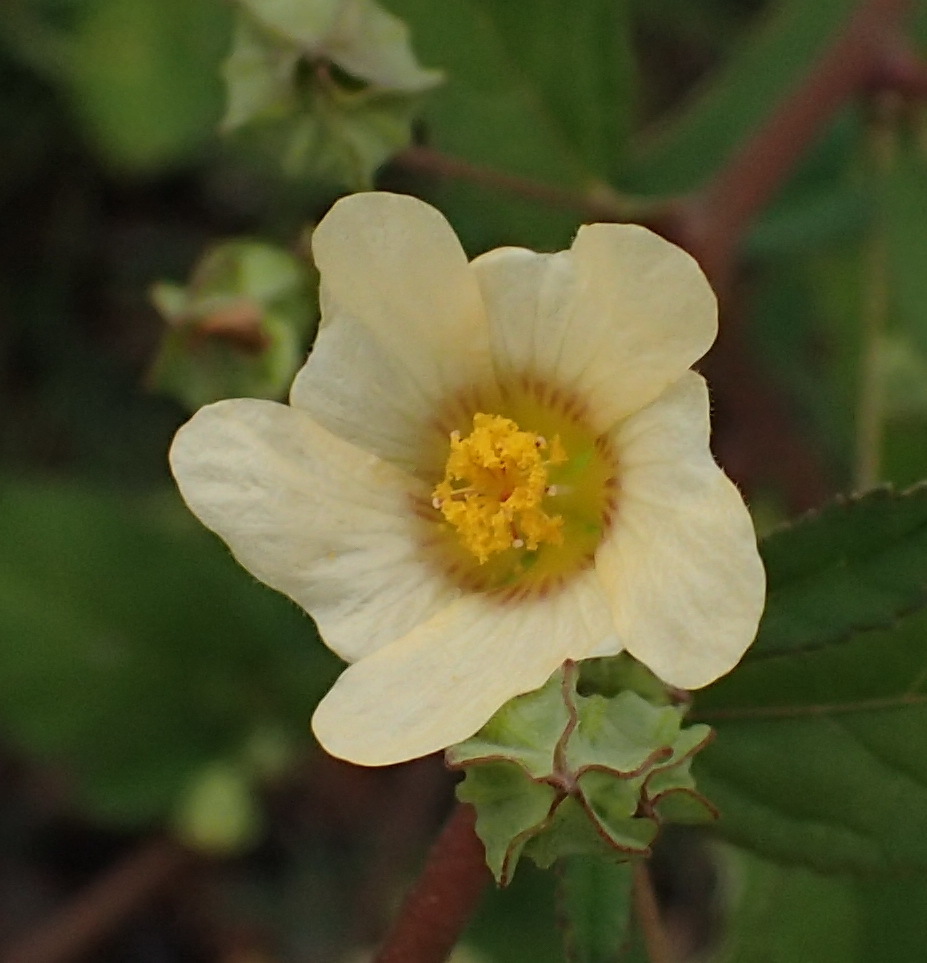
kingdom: Plantae
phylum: Tracheophyta
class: Magnoliopsida
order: Malvales
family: Malvaceae
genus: Sida
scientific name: Sida cordifolia
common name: Ilima
